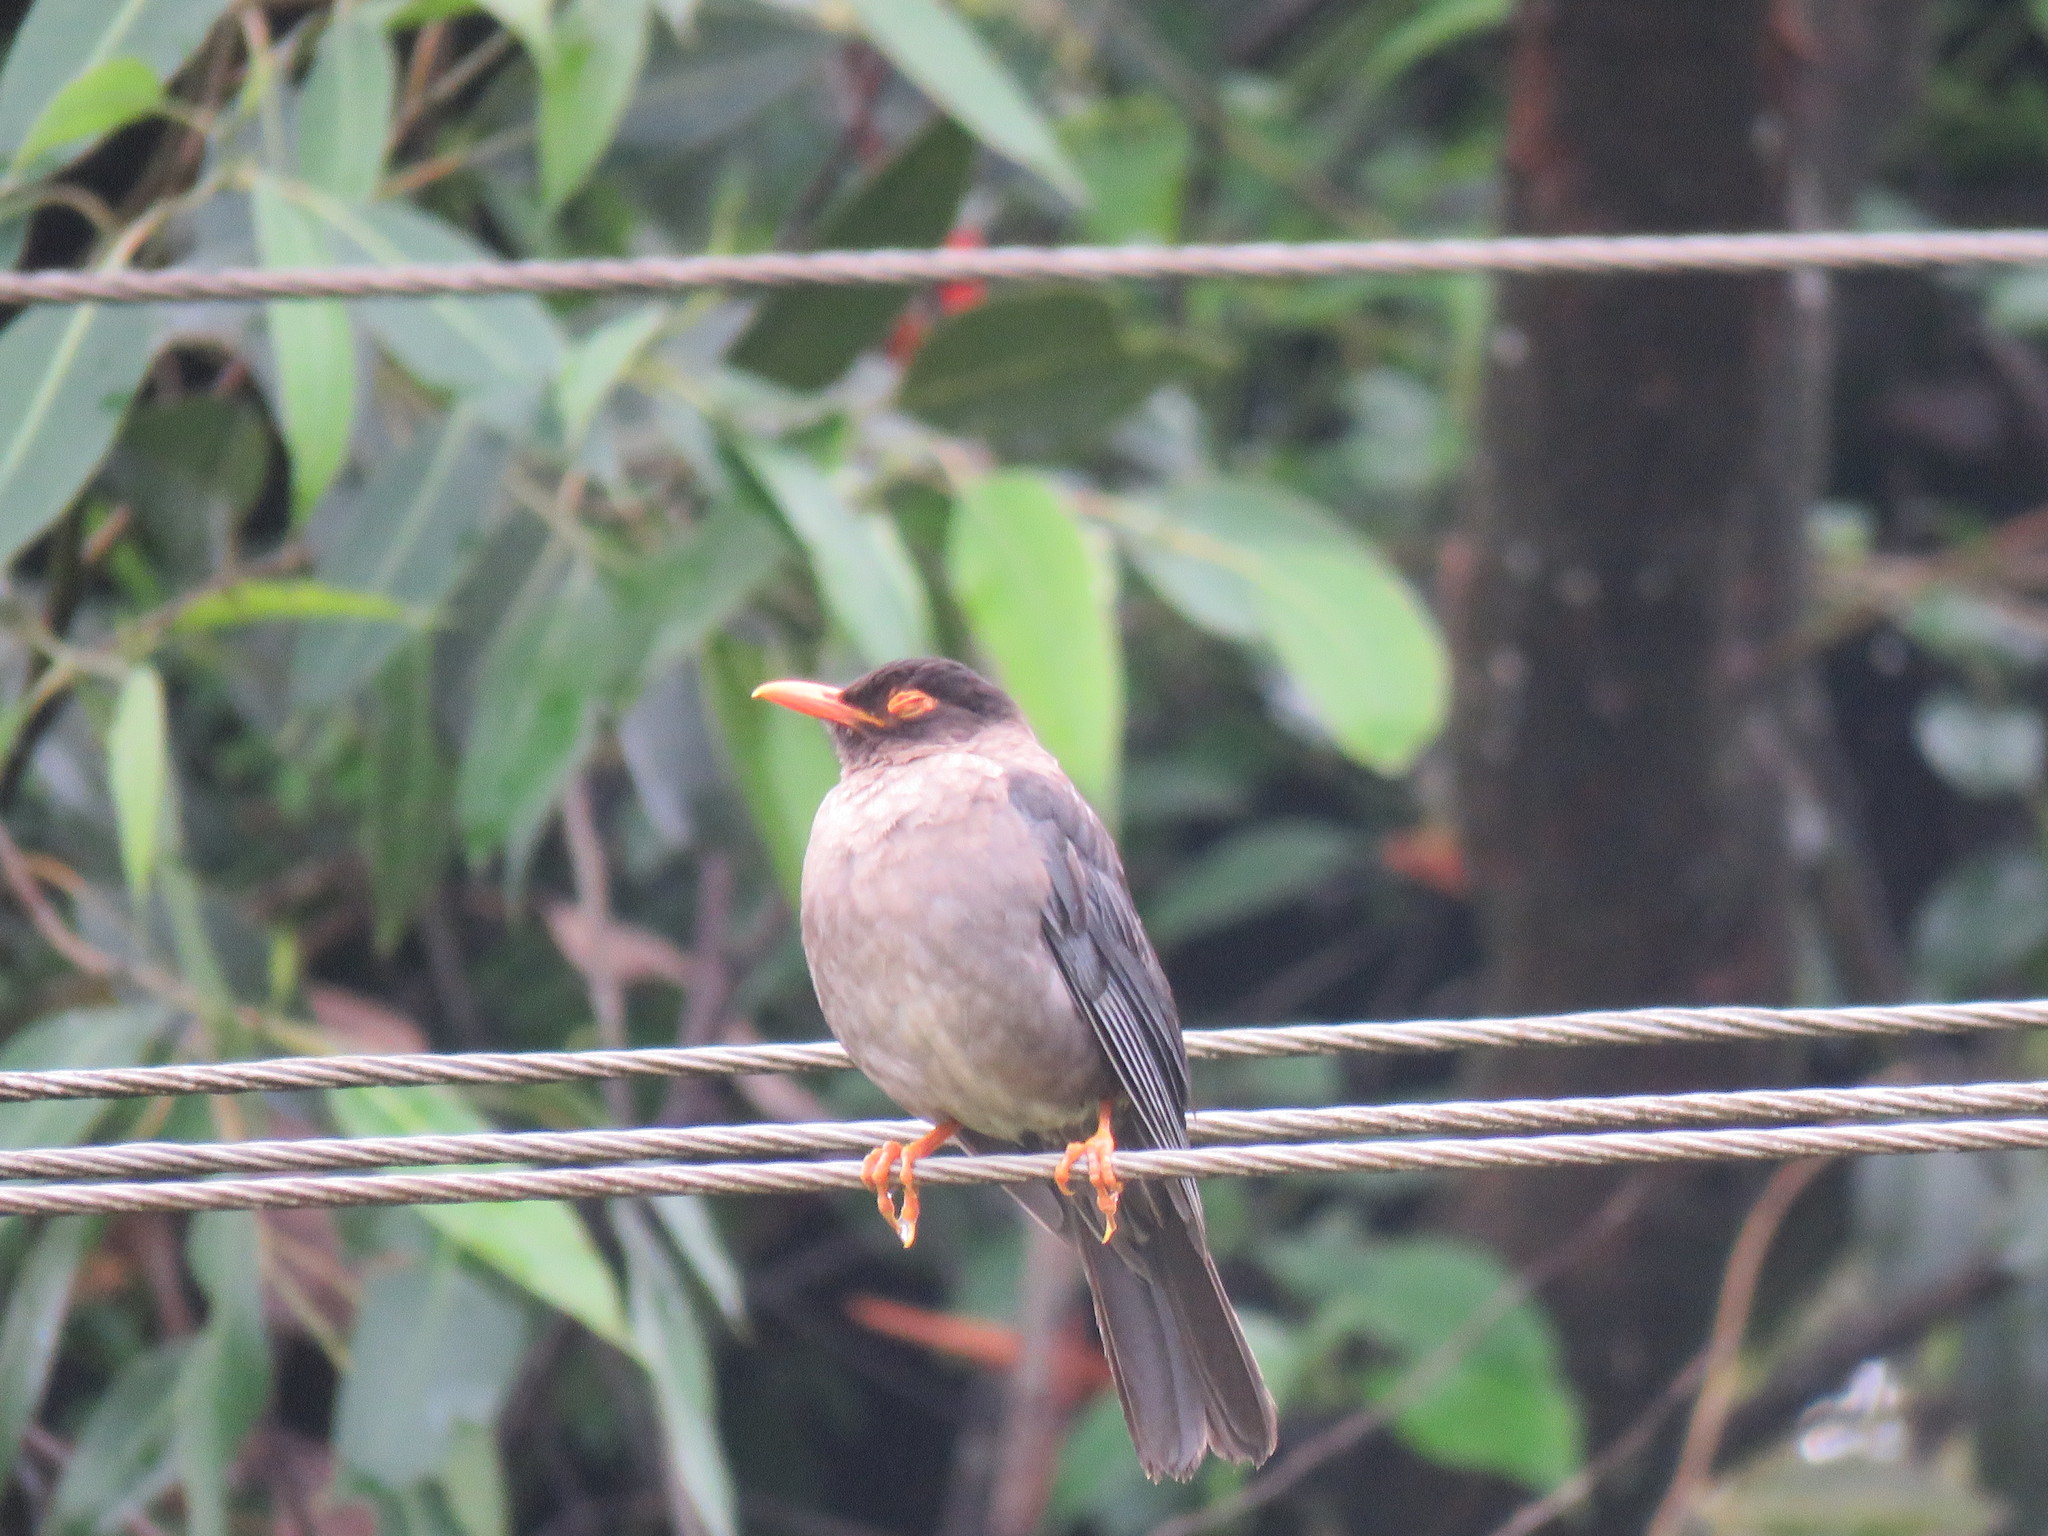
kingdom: Animalia
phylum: Chordata
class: Aves
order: Passeriformes
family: Turdidae
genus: Turdus
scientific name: Turdus simillimus
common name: Indian blackbird
